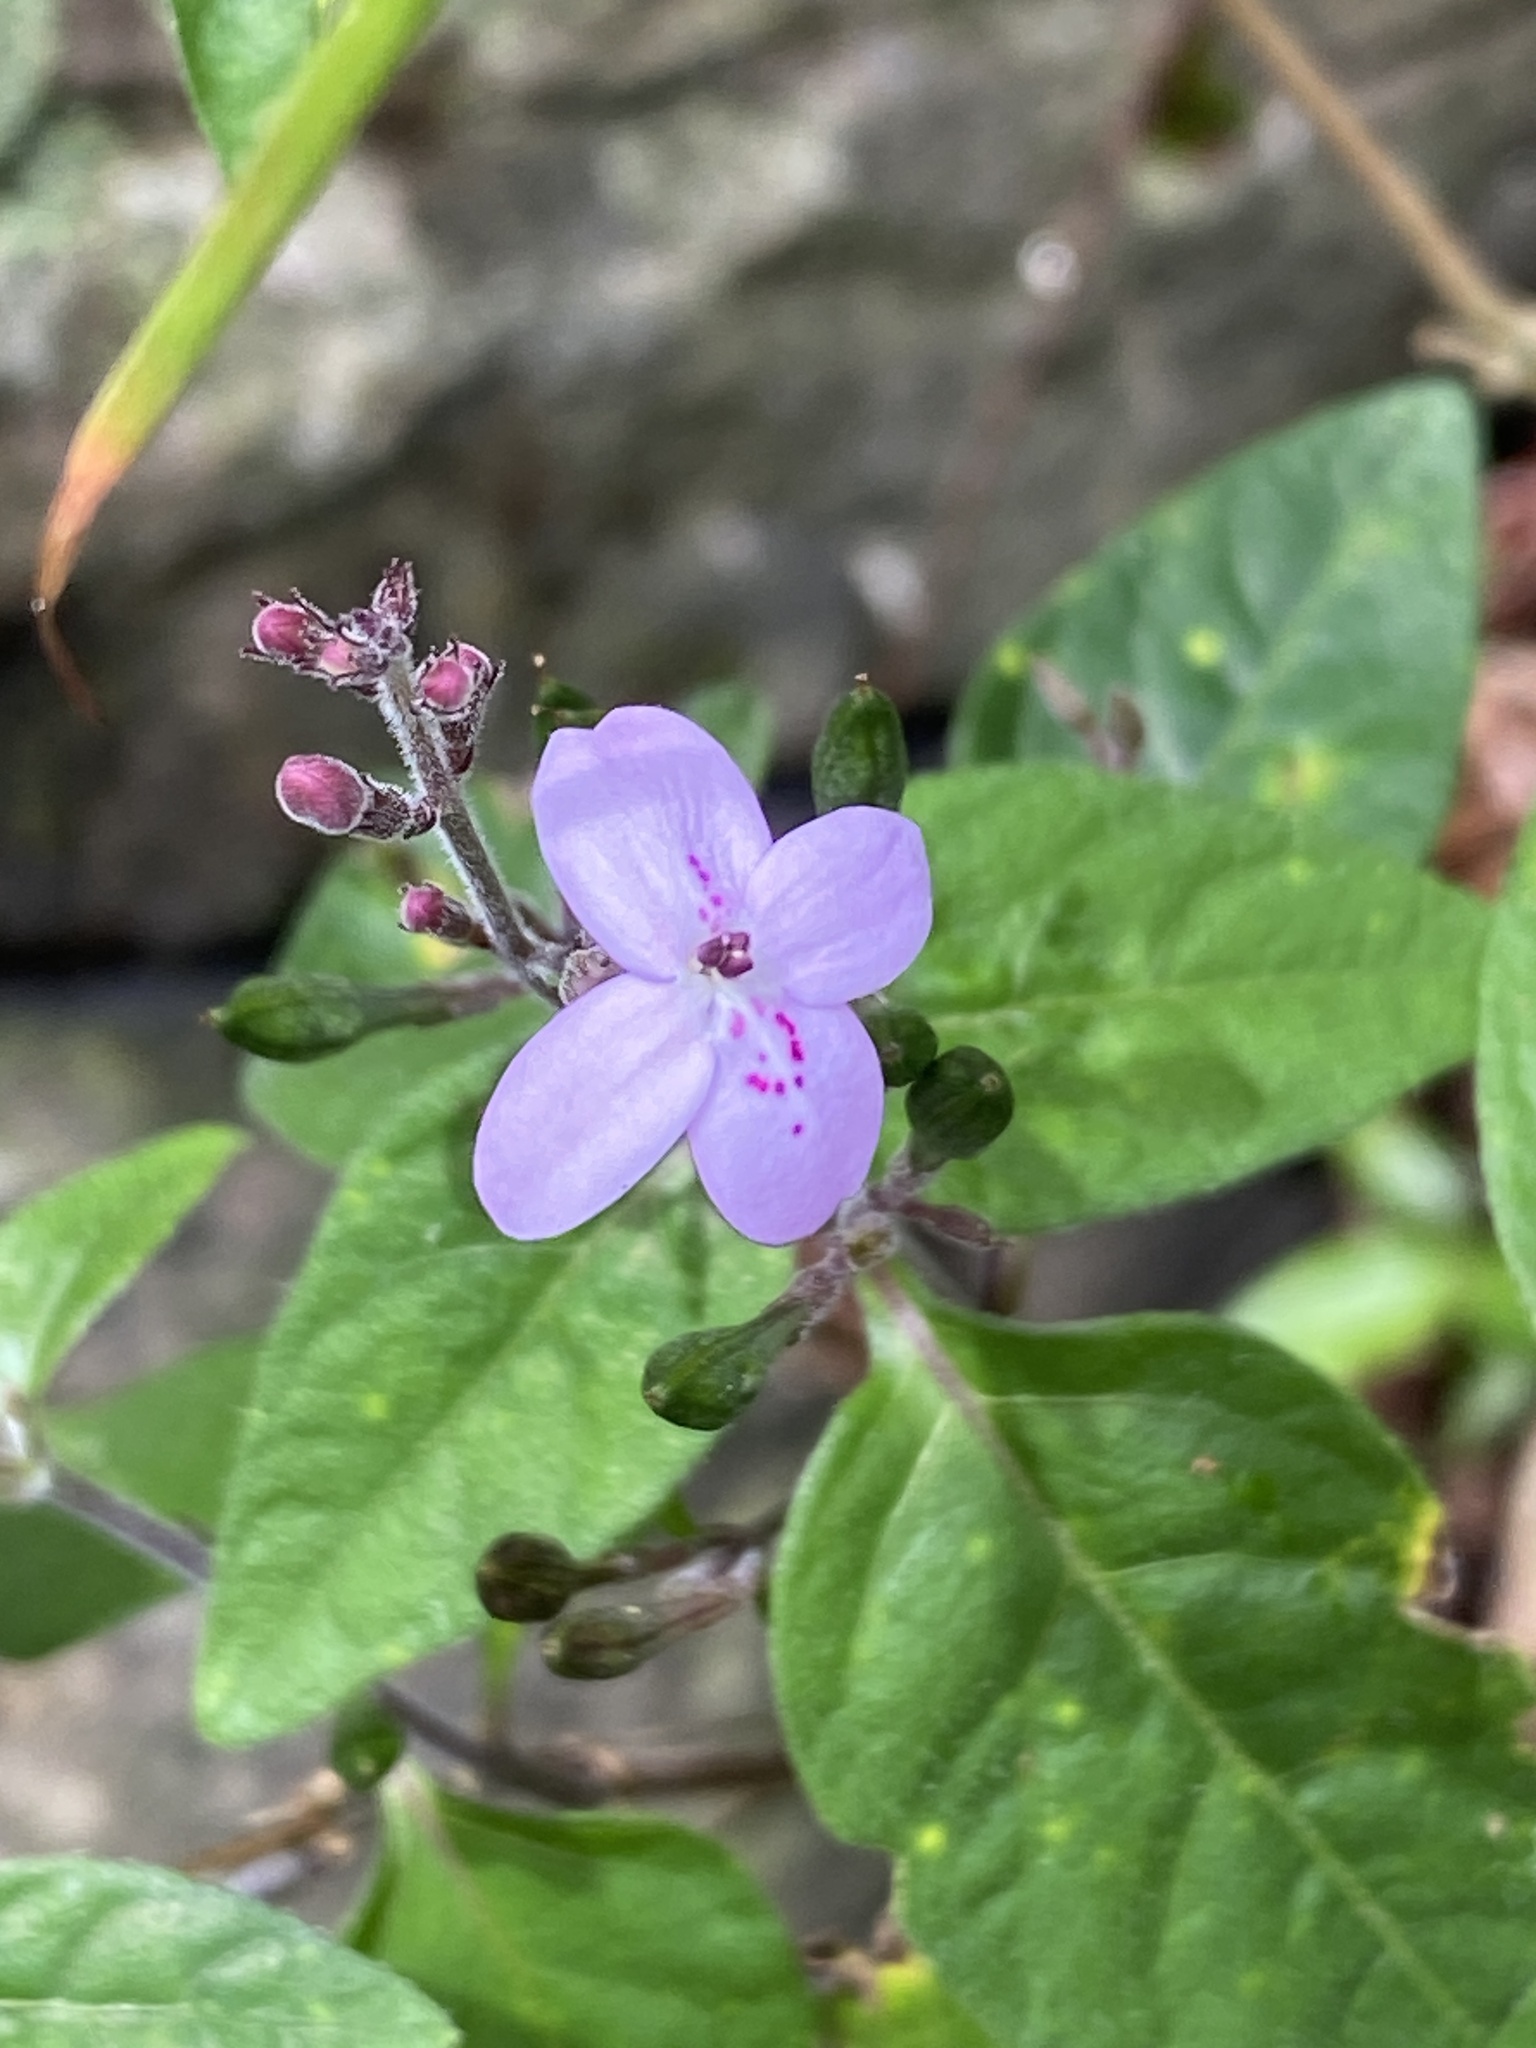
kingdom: Plantae
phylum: Tracheophyta
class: Magnoliopsida
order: Lamiales
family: Acanthaceae
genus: Pseuderanthemum
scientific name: Pseuderanthemum variabile
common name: Night and afternoon
